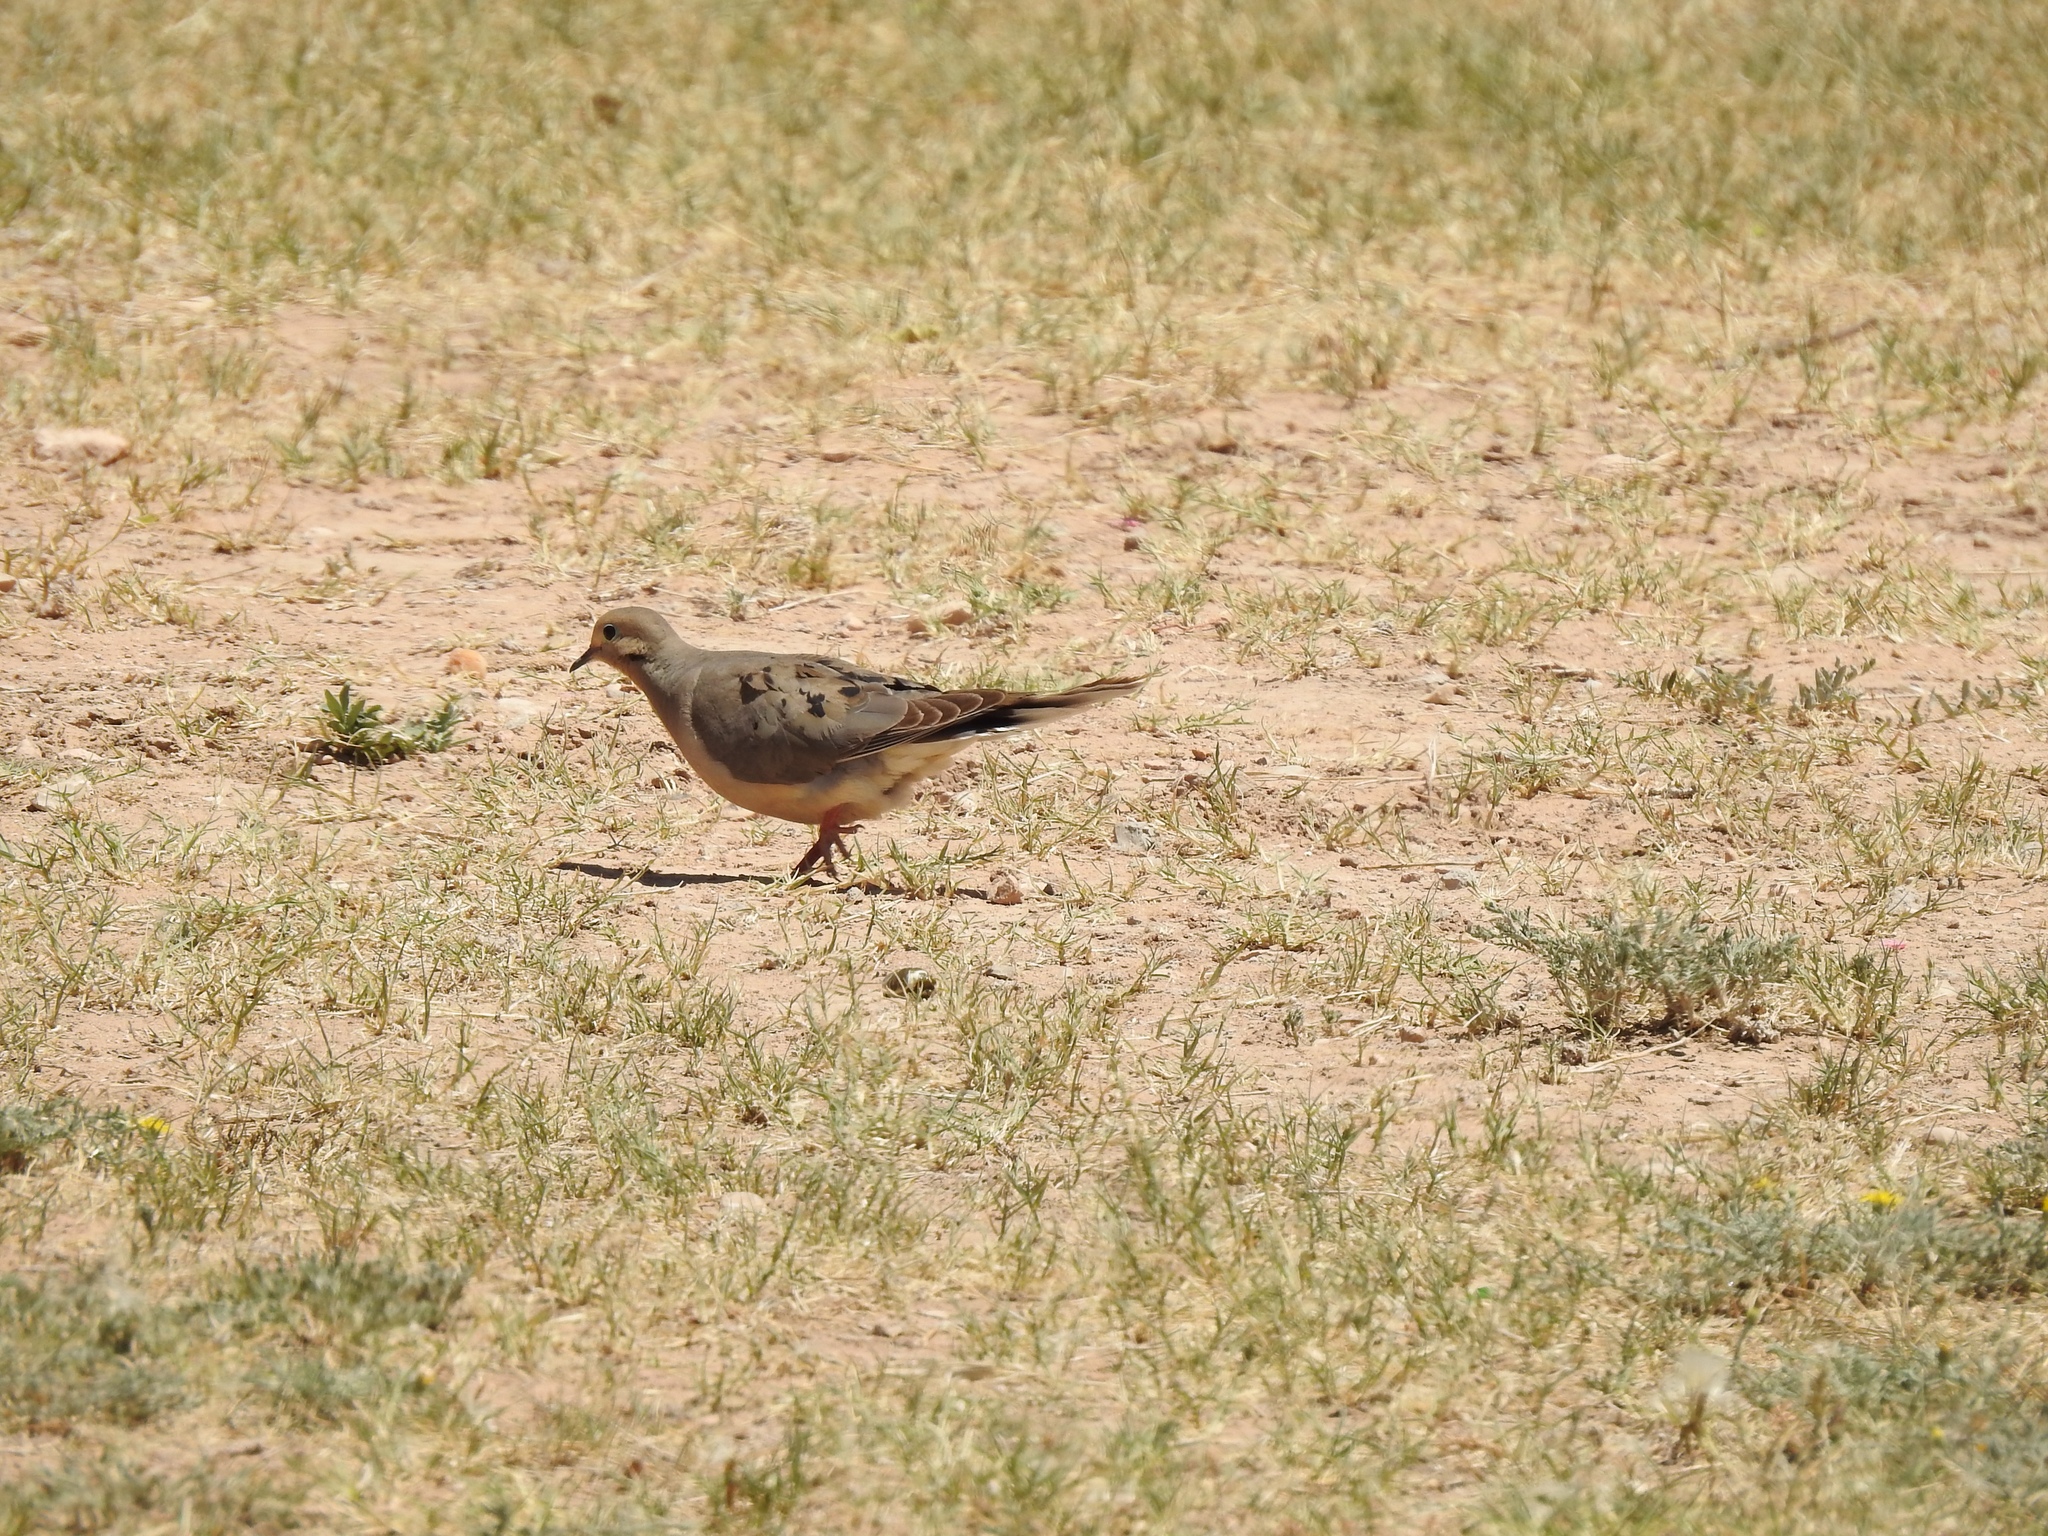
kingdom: Animalia
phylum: Chordata
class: Aves
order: Columbiformes
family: Columbidae
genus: Zenaida
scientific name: Zenaida macroura
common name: Mourning dove
